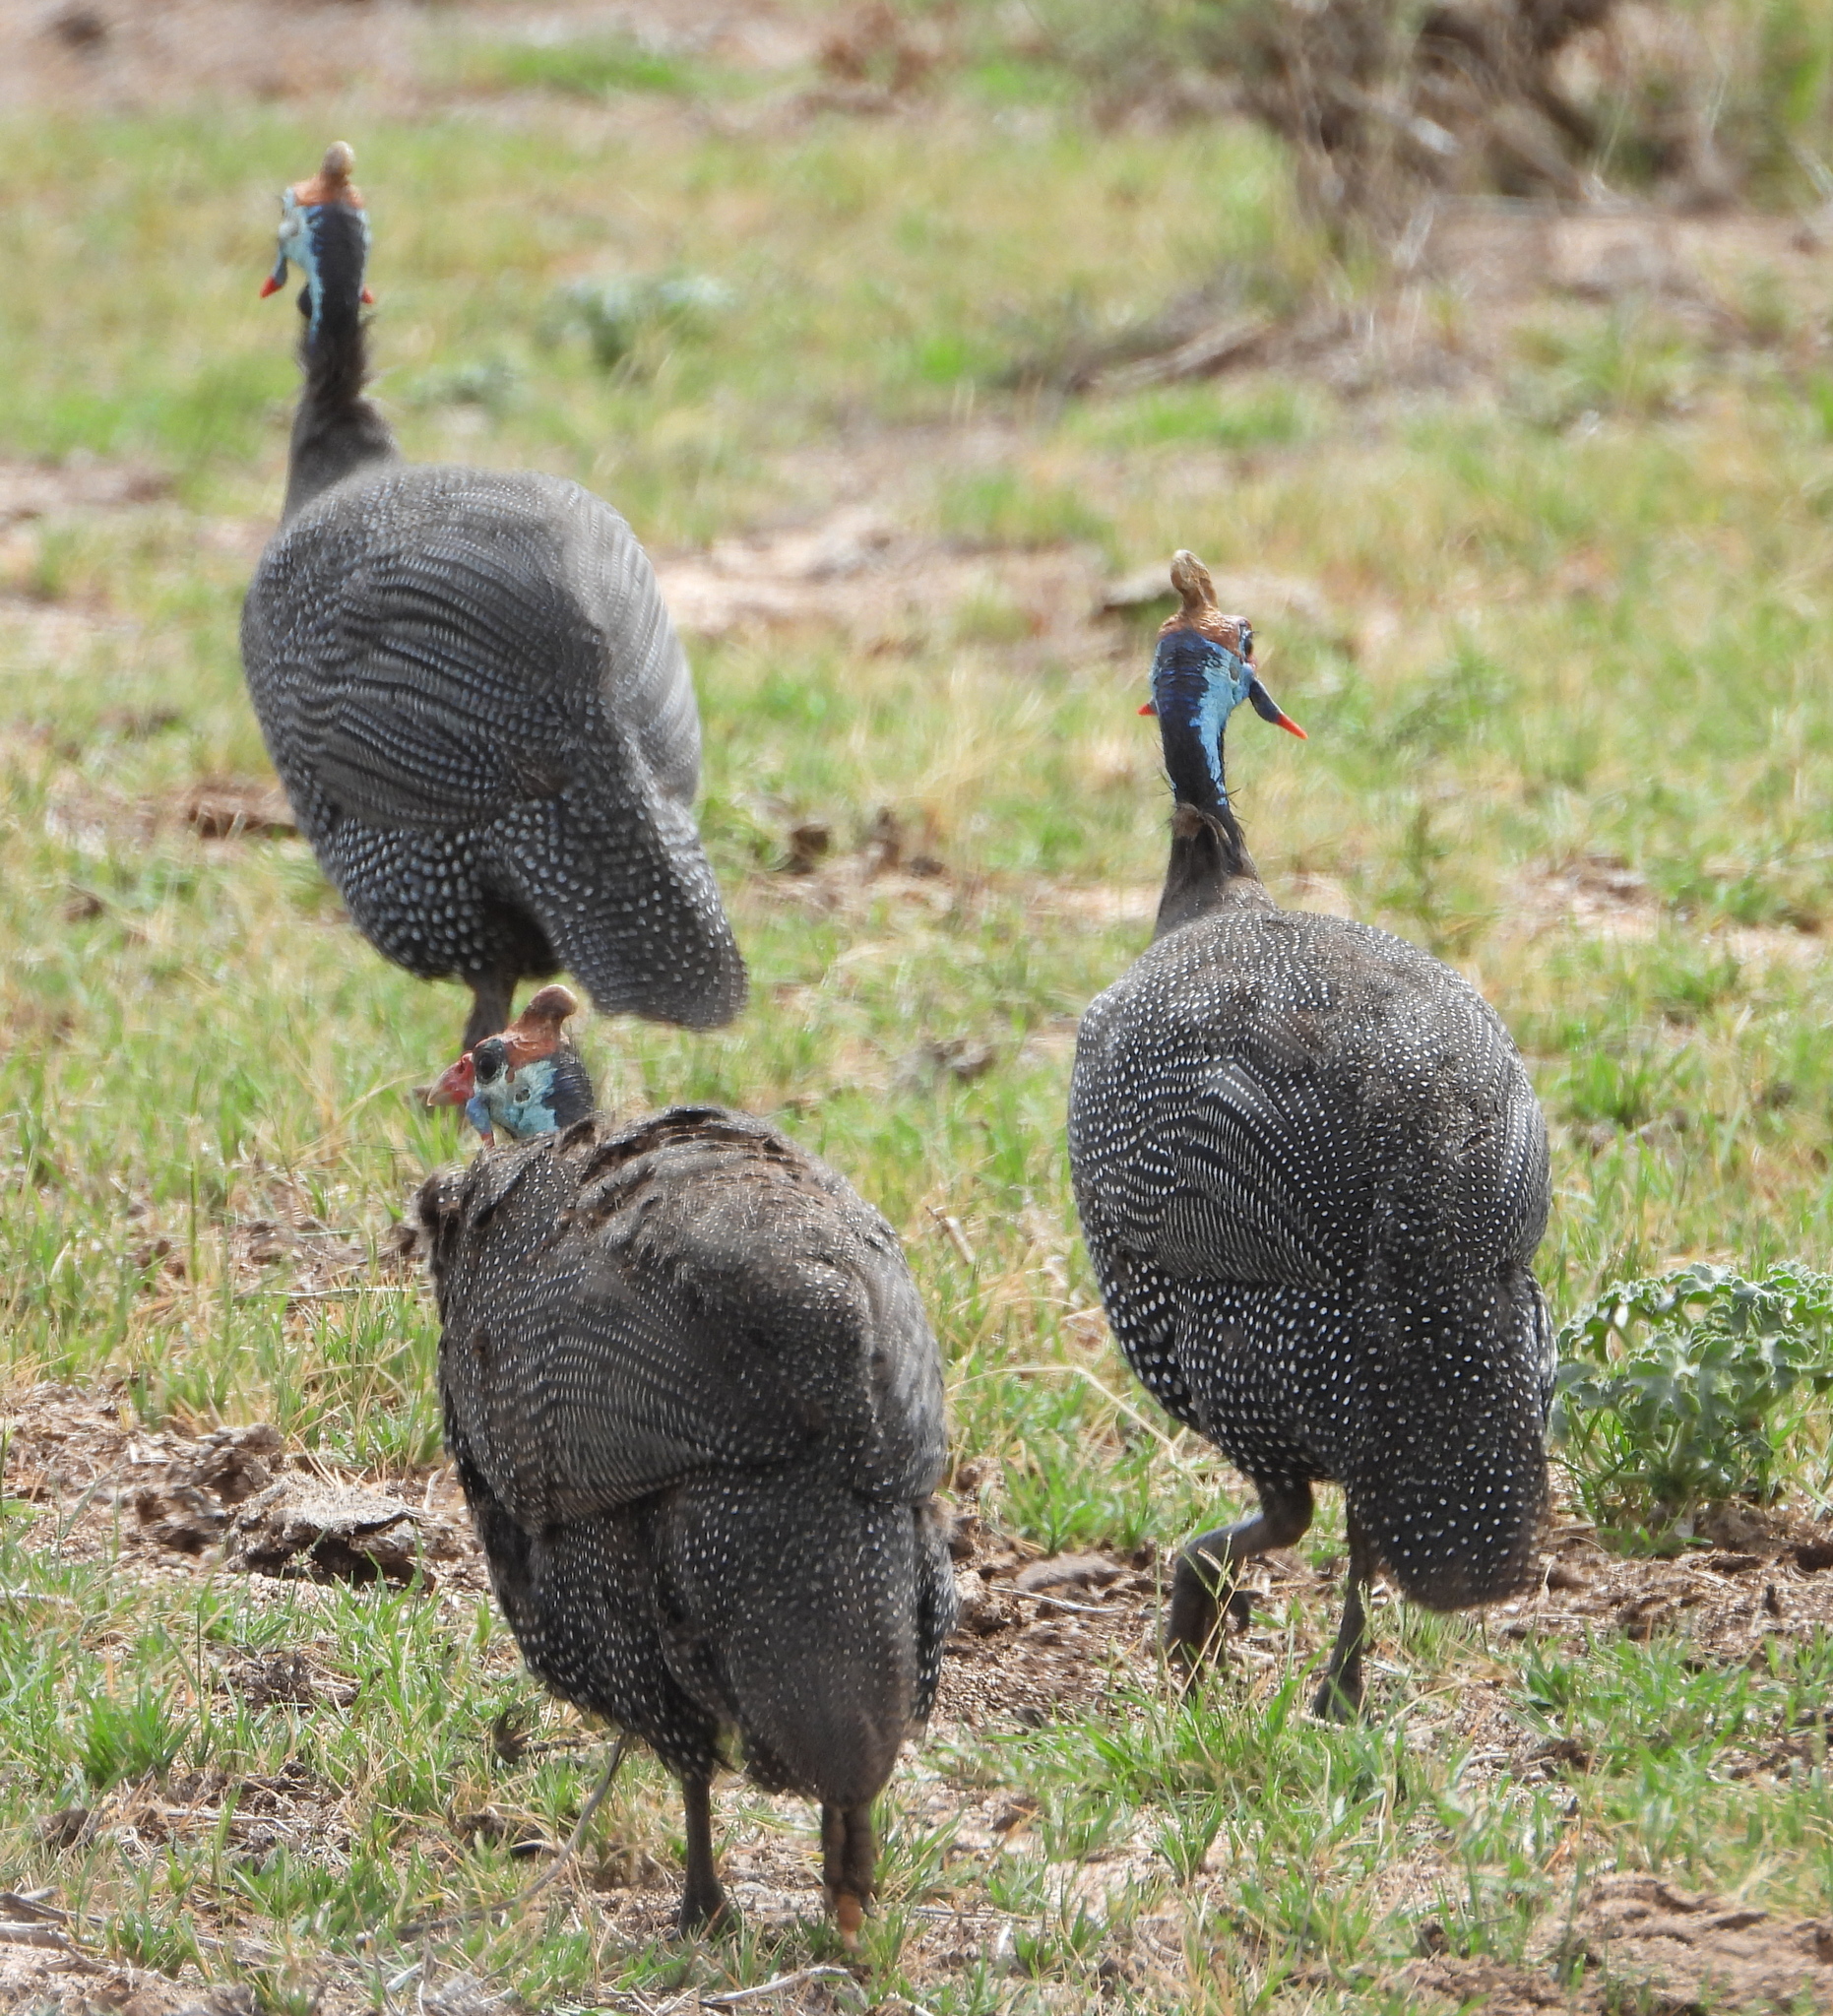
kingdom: Animalia
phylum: Chordata
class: Aves
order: Galliformes
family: Numididae
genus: Numida
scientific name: Numida meleagris
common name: Helmeted guineafowl
